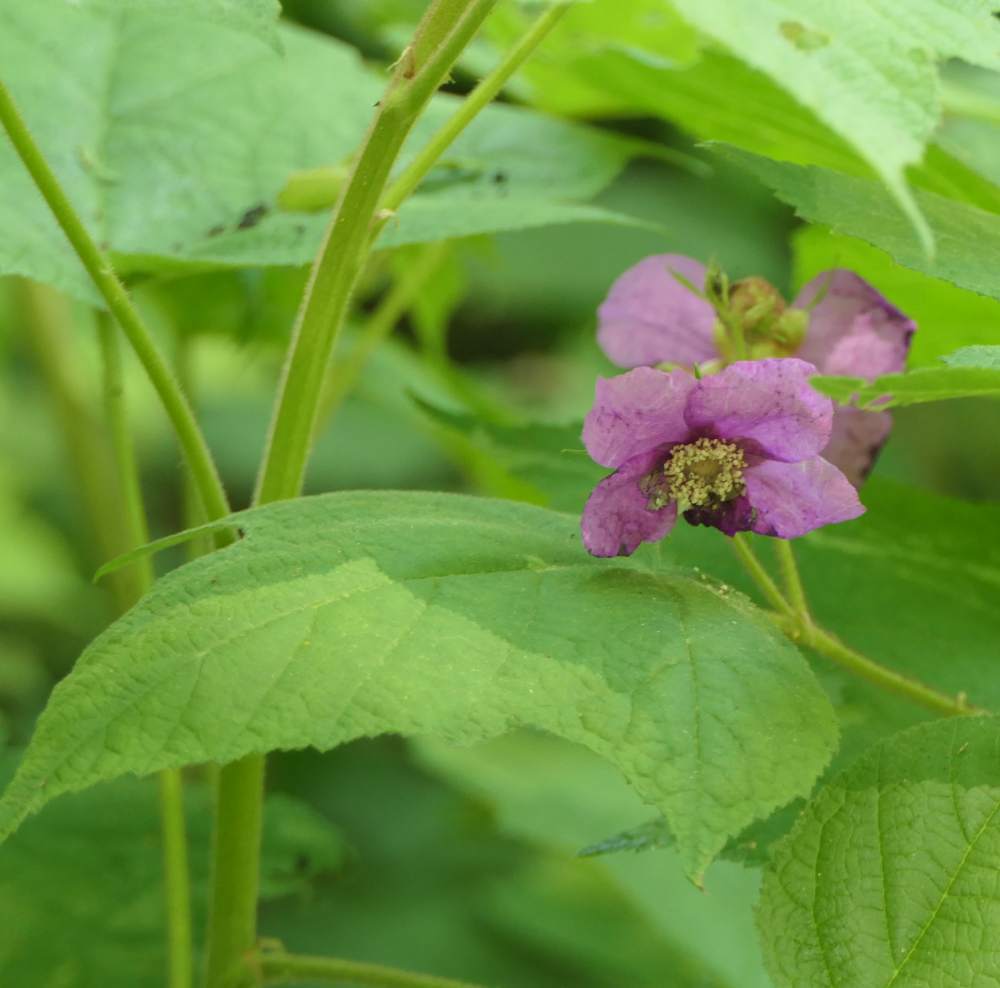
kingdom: Plantae
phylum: Tracheophyta
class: Magnoliopsida
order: Rosales
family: Rosaceae
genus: Rubus
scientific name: Rubus odoratus
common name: Purple-flowered raspberry
